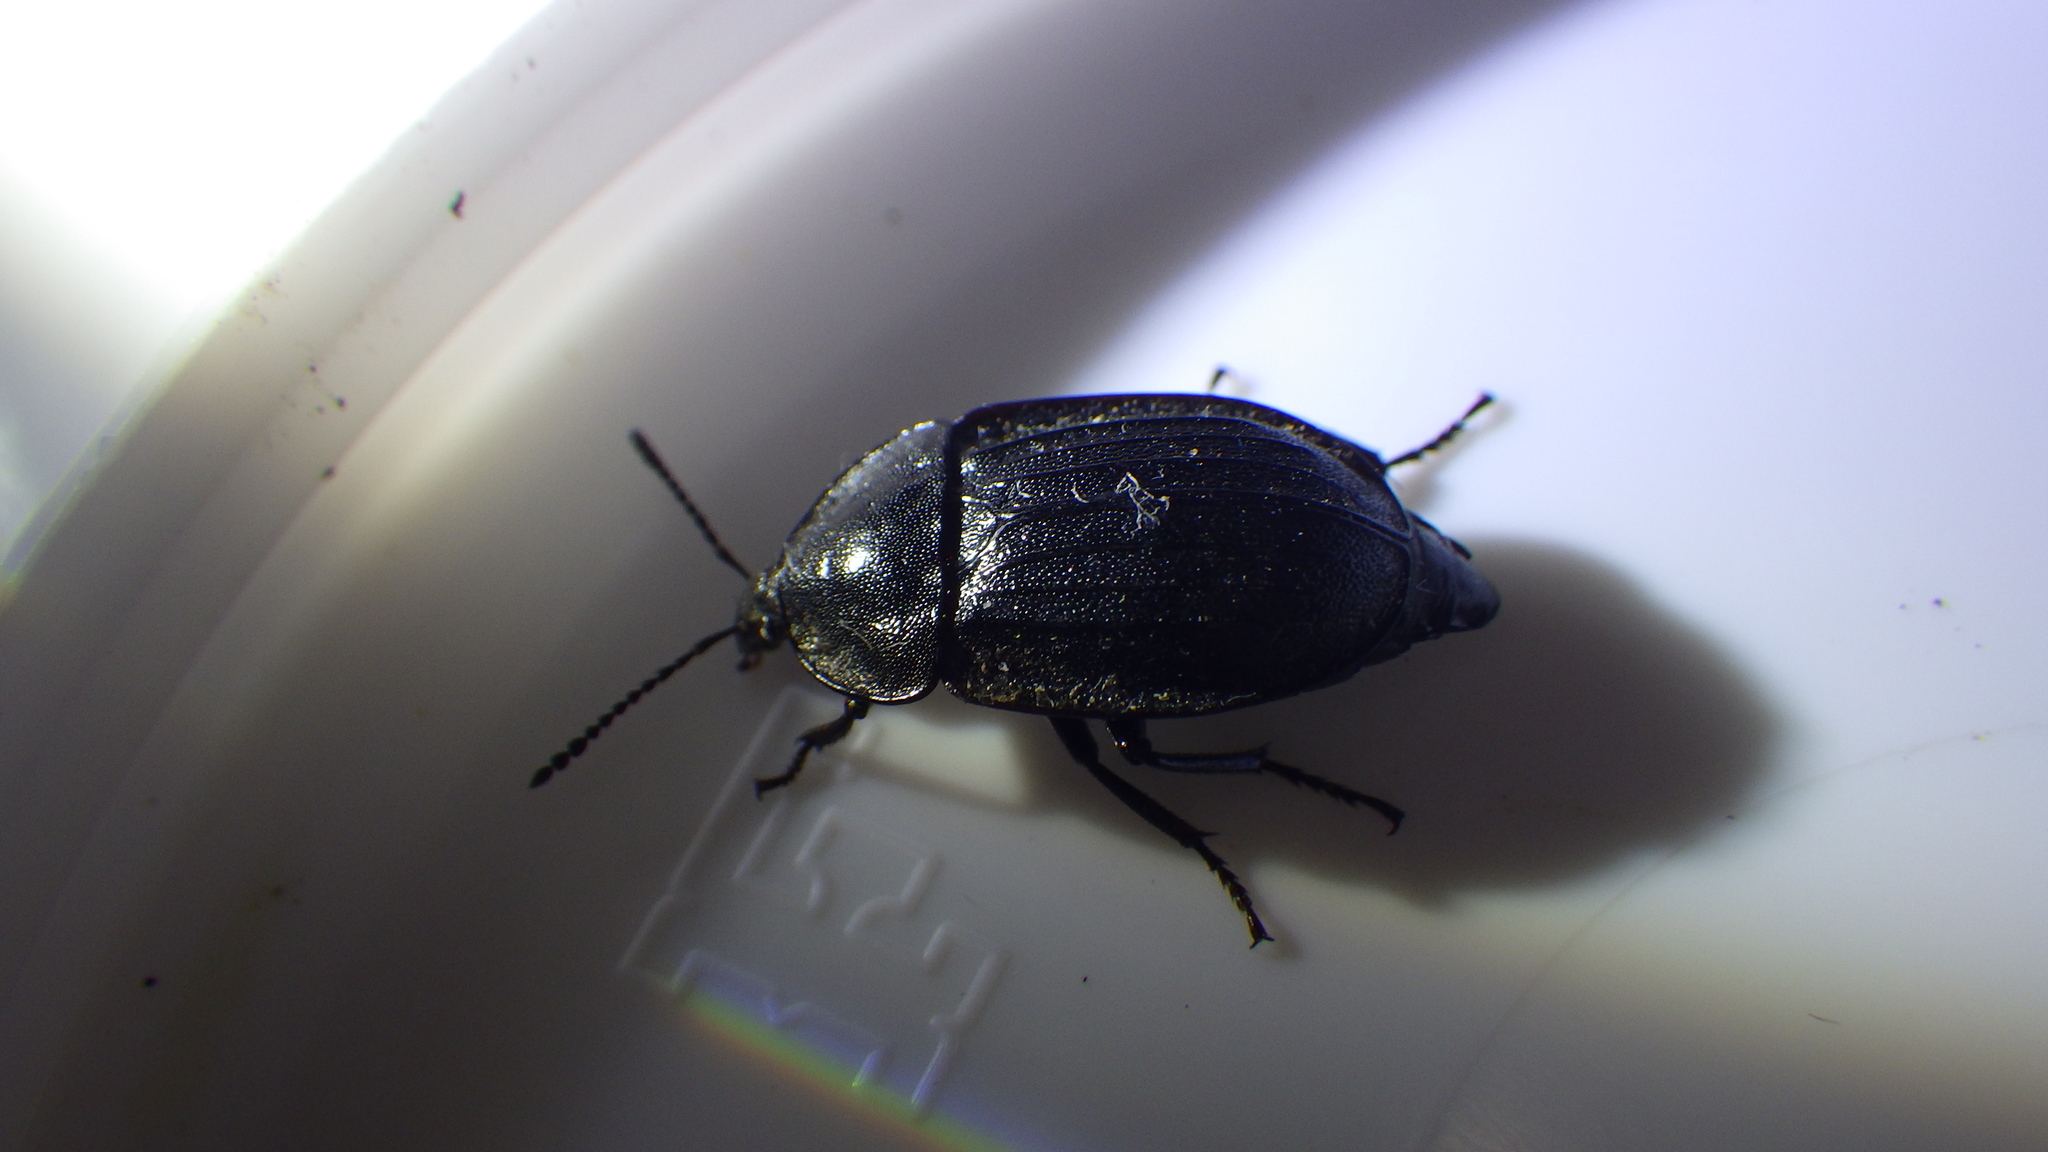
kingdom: Animalia
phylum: Arthropoda
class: Insecta
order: Coleoptera
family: Staphylinidae
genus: Silpha
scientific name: Silpha atrata
